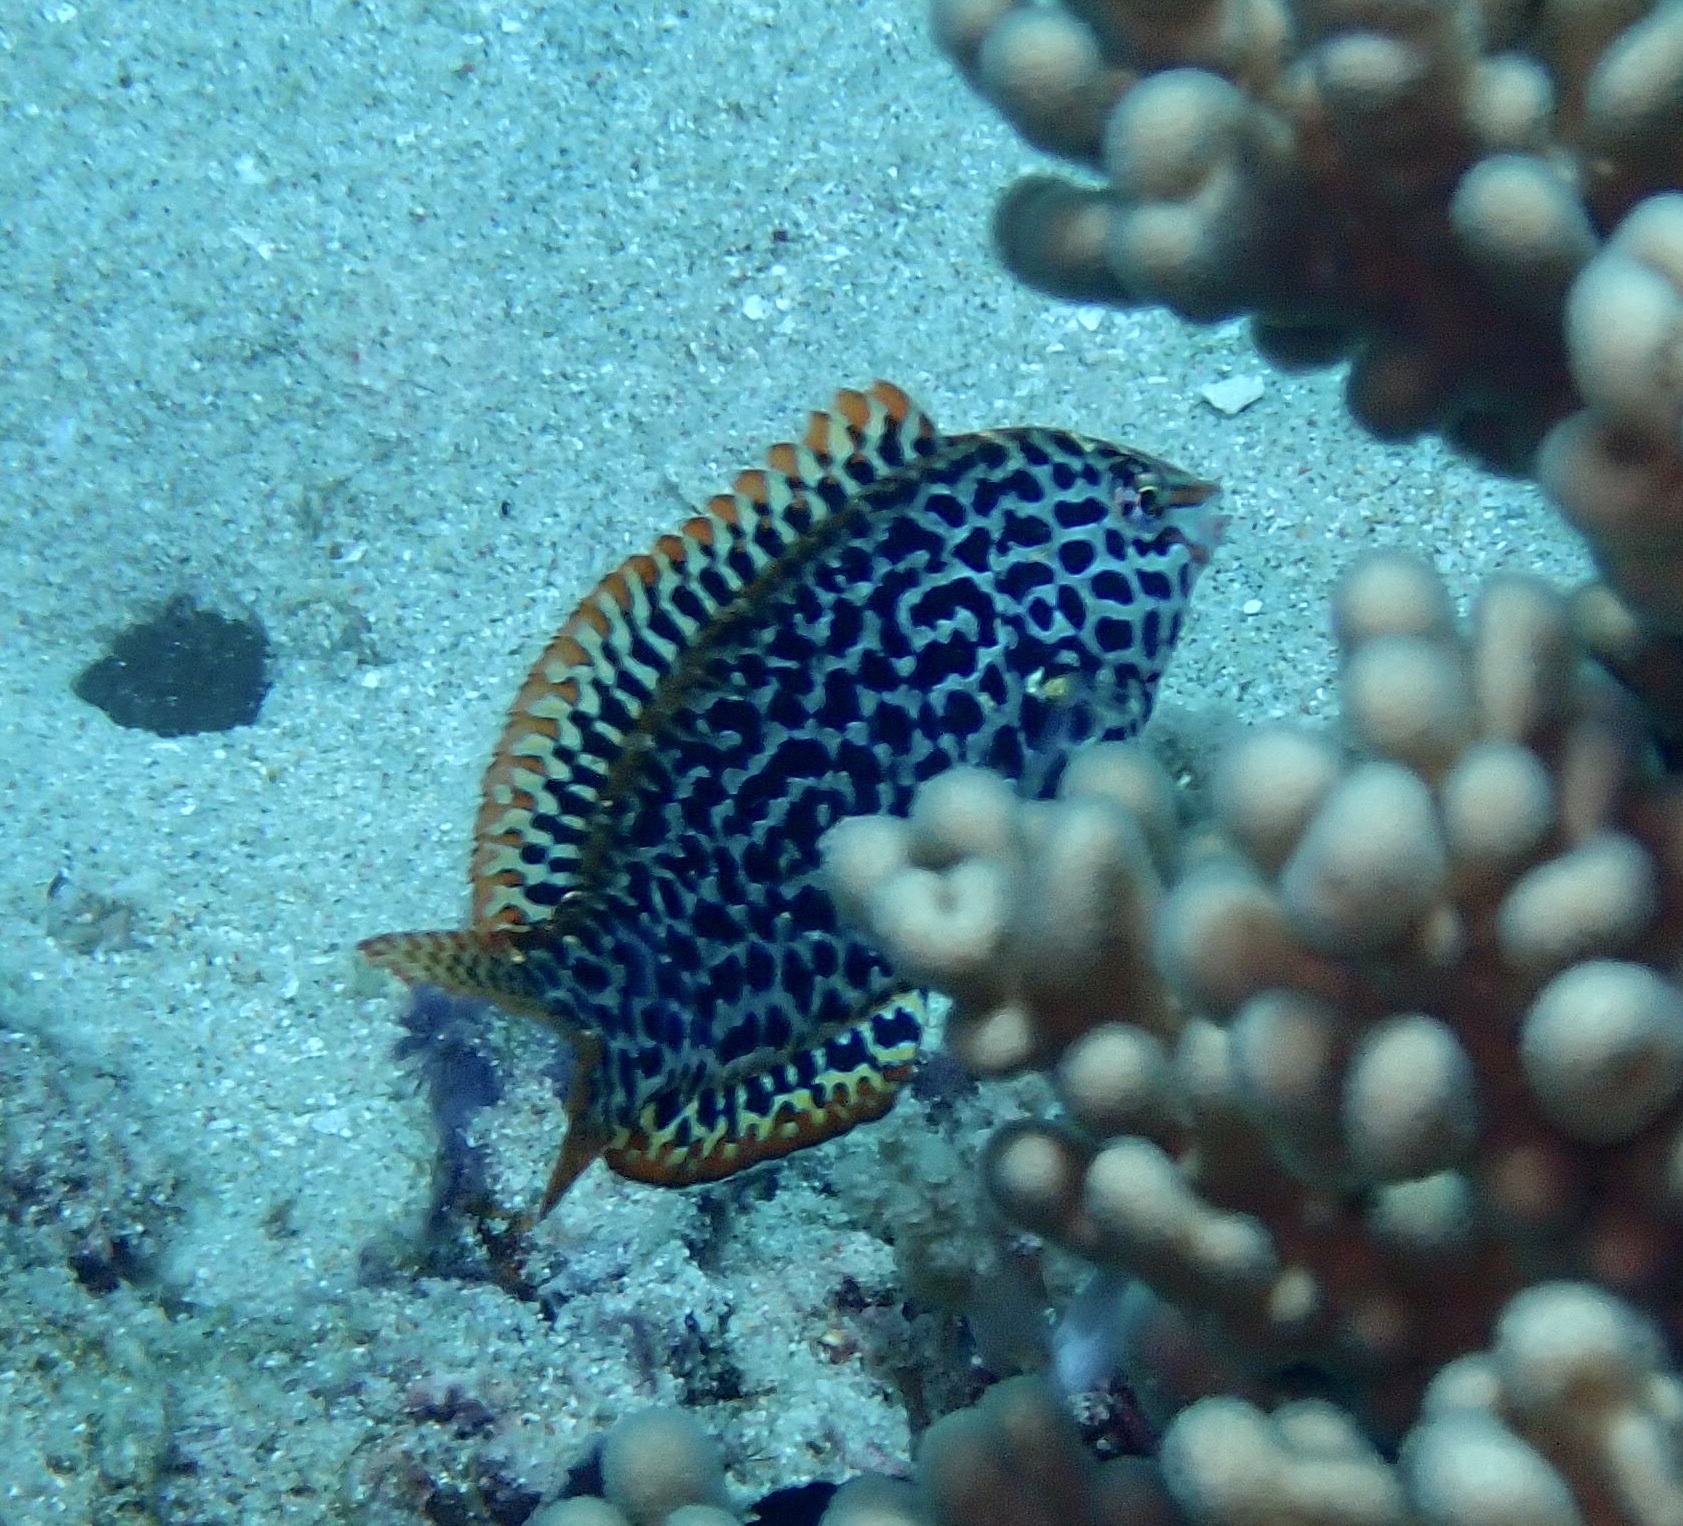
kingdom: Animalia
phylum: Chordata
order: Perciformes
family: Labridae
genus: Macropharyngodon
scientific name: Macropharyngodon meleagris
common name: Leopard wrasse
